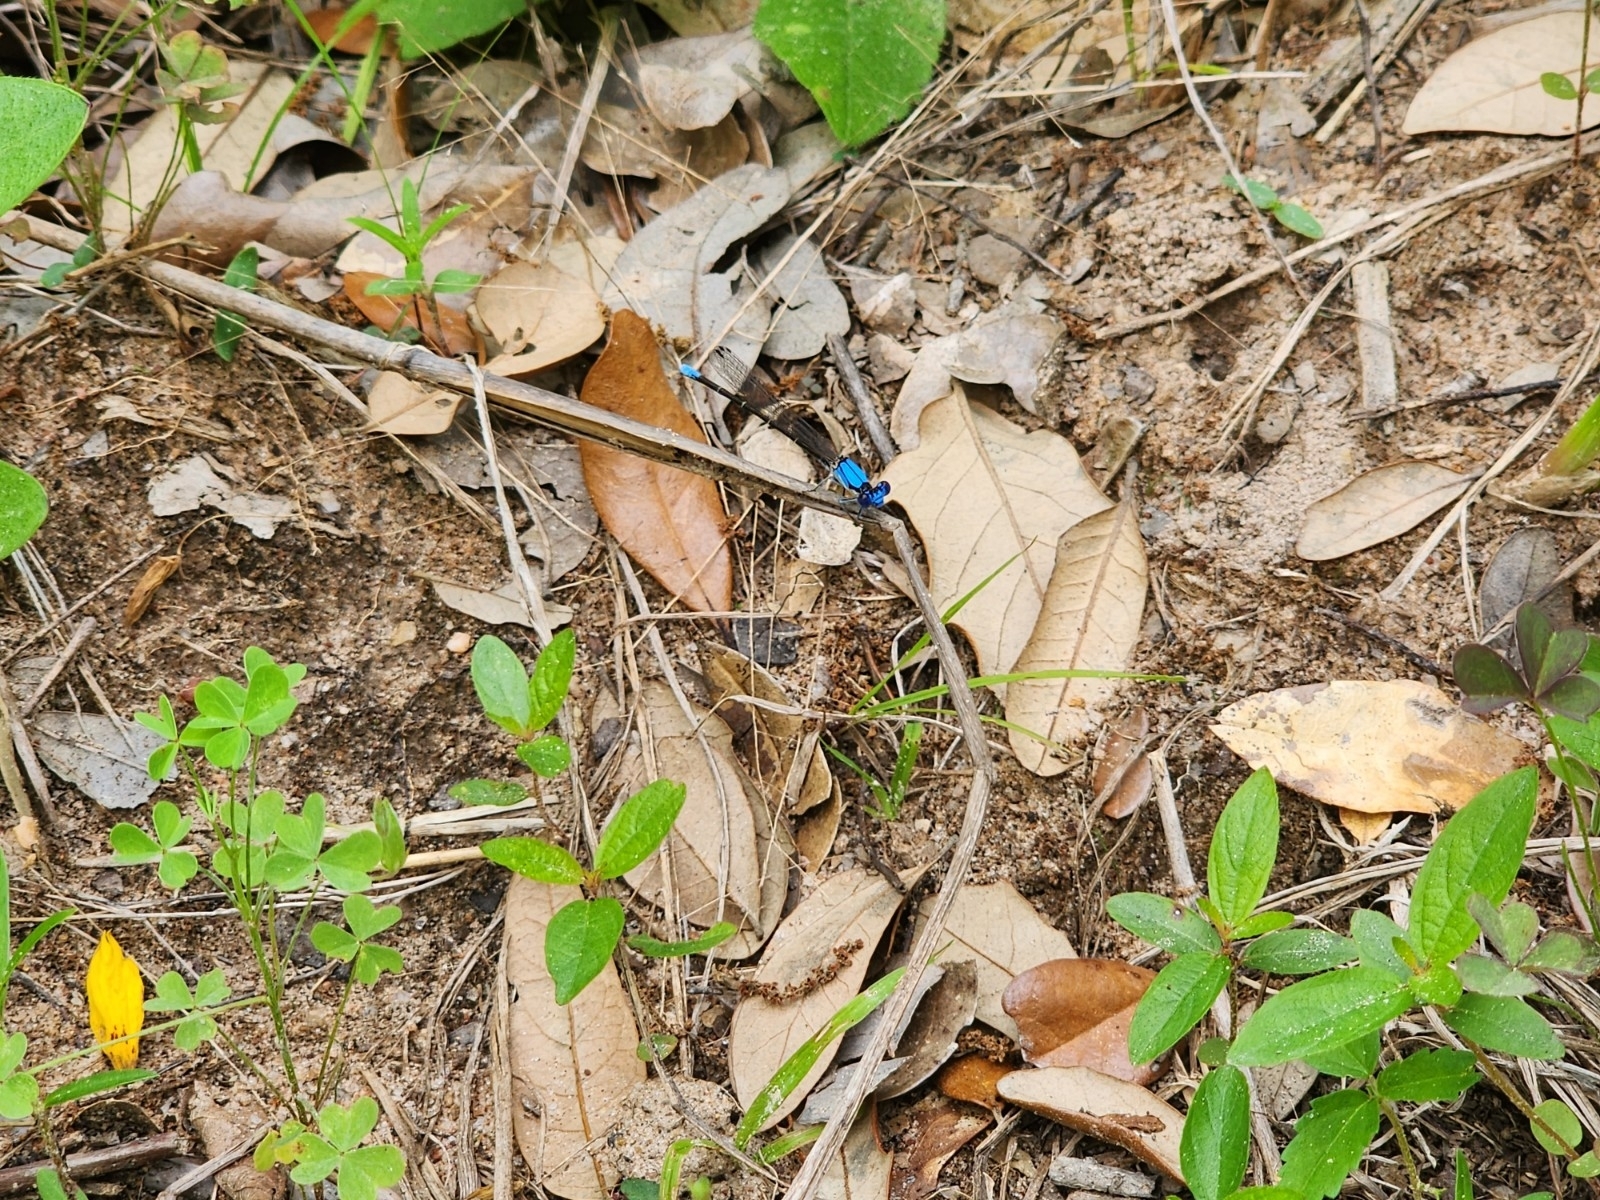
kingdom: Animalia
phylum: Arthropoda
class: Insecta
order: Odonata
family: Coenagrionidae
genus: Argia
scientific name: Argia apicalis
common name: Blue-fronted dancer
